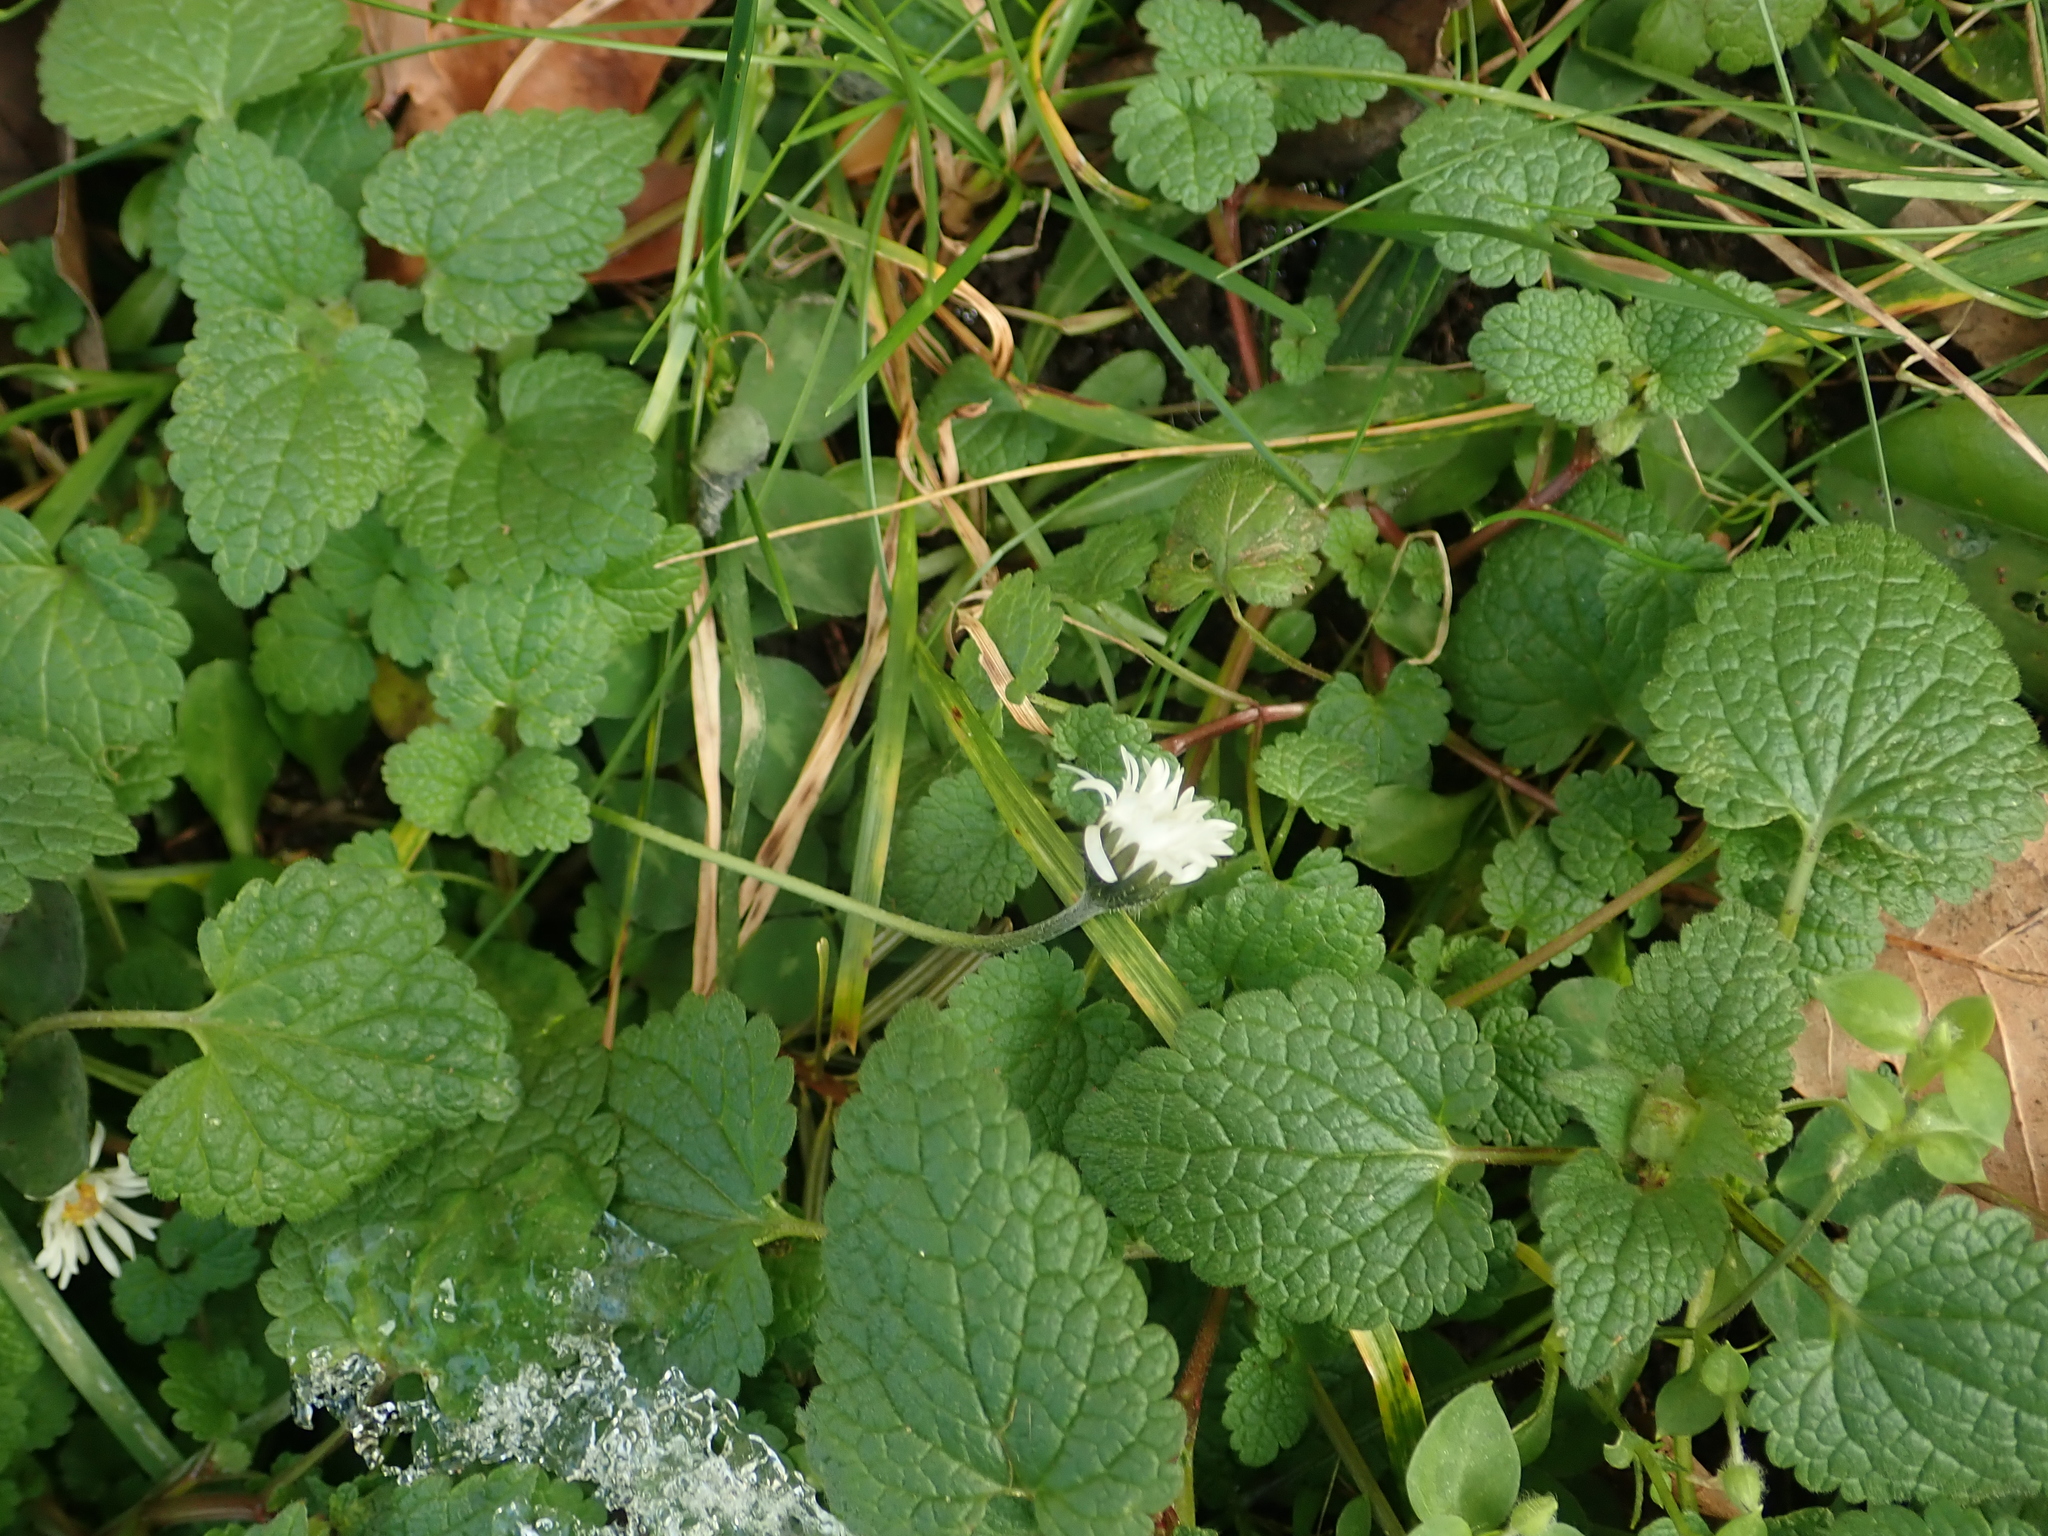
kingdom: Plantae
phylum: Tracheophyta
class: Magnoliopsida
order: Asterales
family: Asteraceae
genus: Bellis
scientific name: Bellis perennis
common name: Lawndaisy
